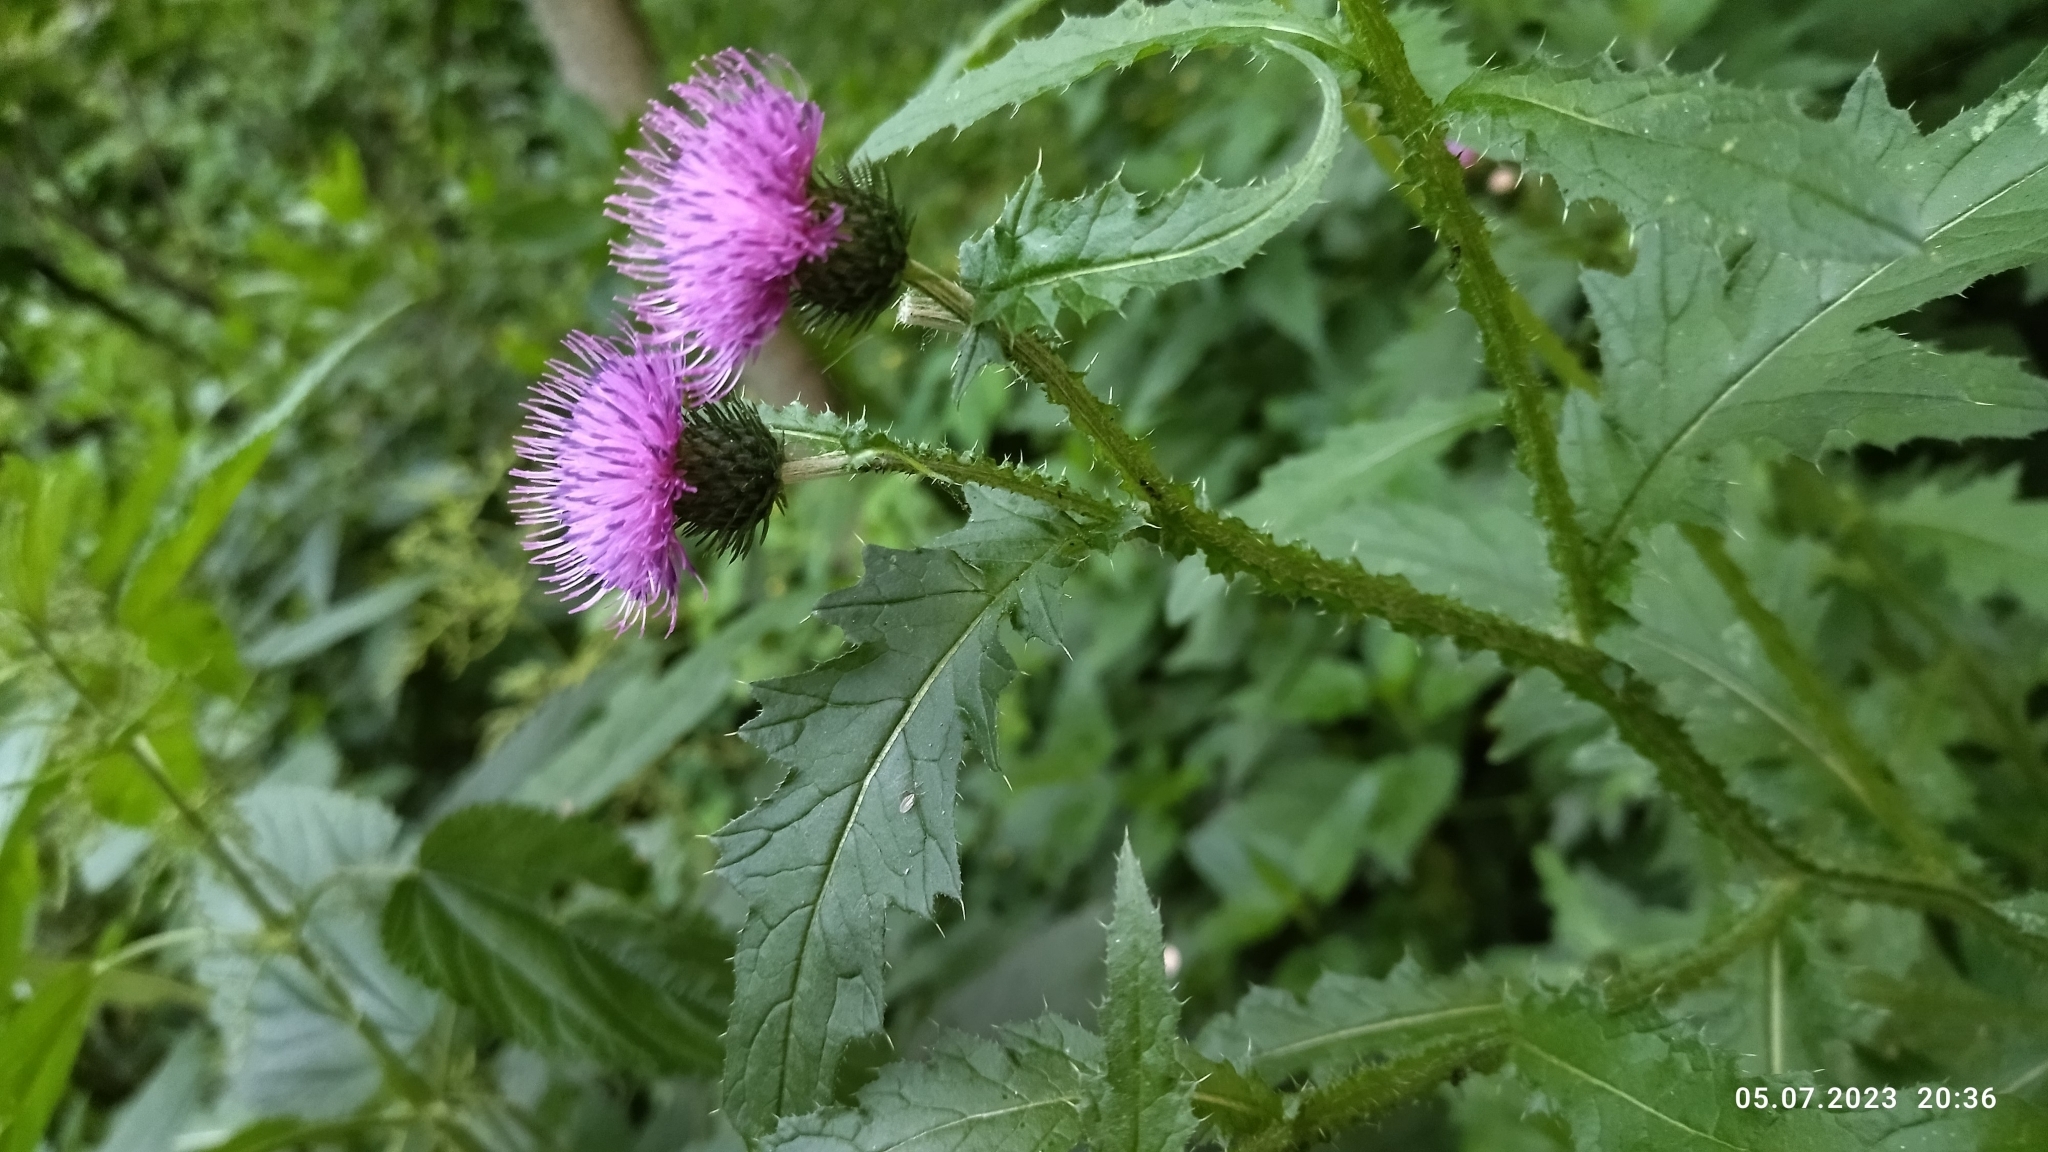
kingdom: Plantae
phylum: Tracheophyta
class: Magnoliopsida
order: Asterales
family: Asteraceae
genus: Carduus
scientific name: Carduus crispus
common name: Welted thistle
